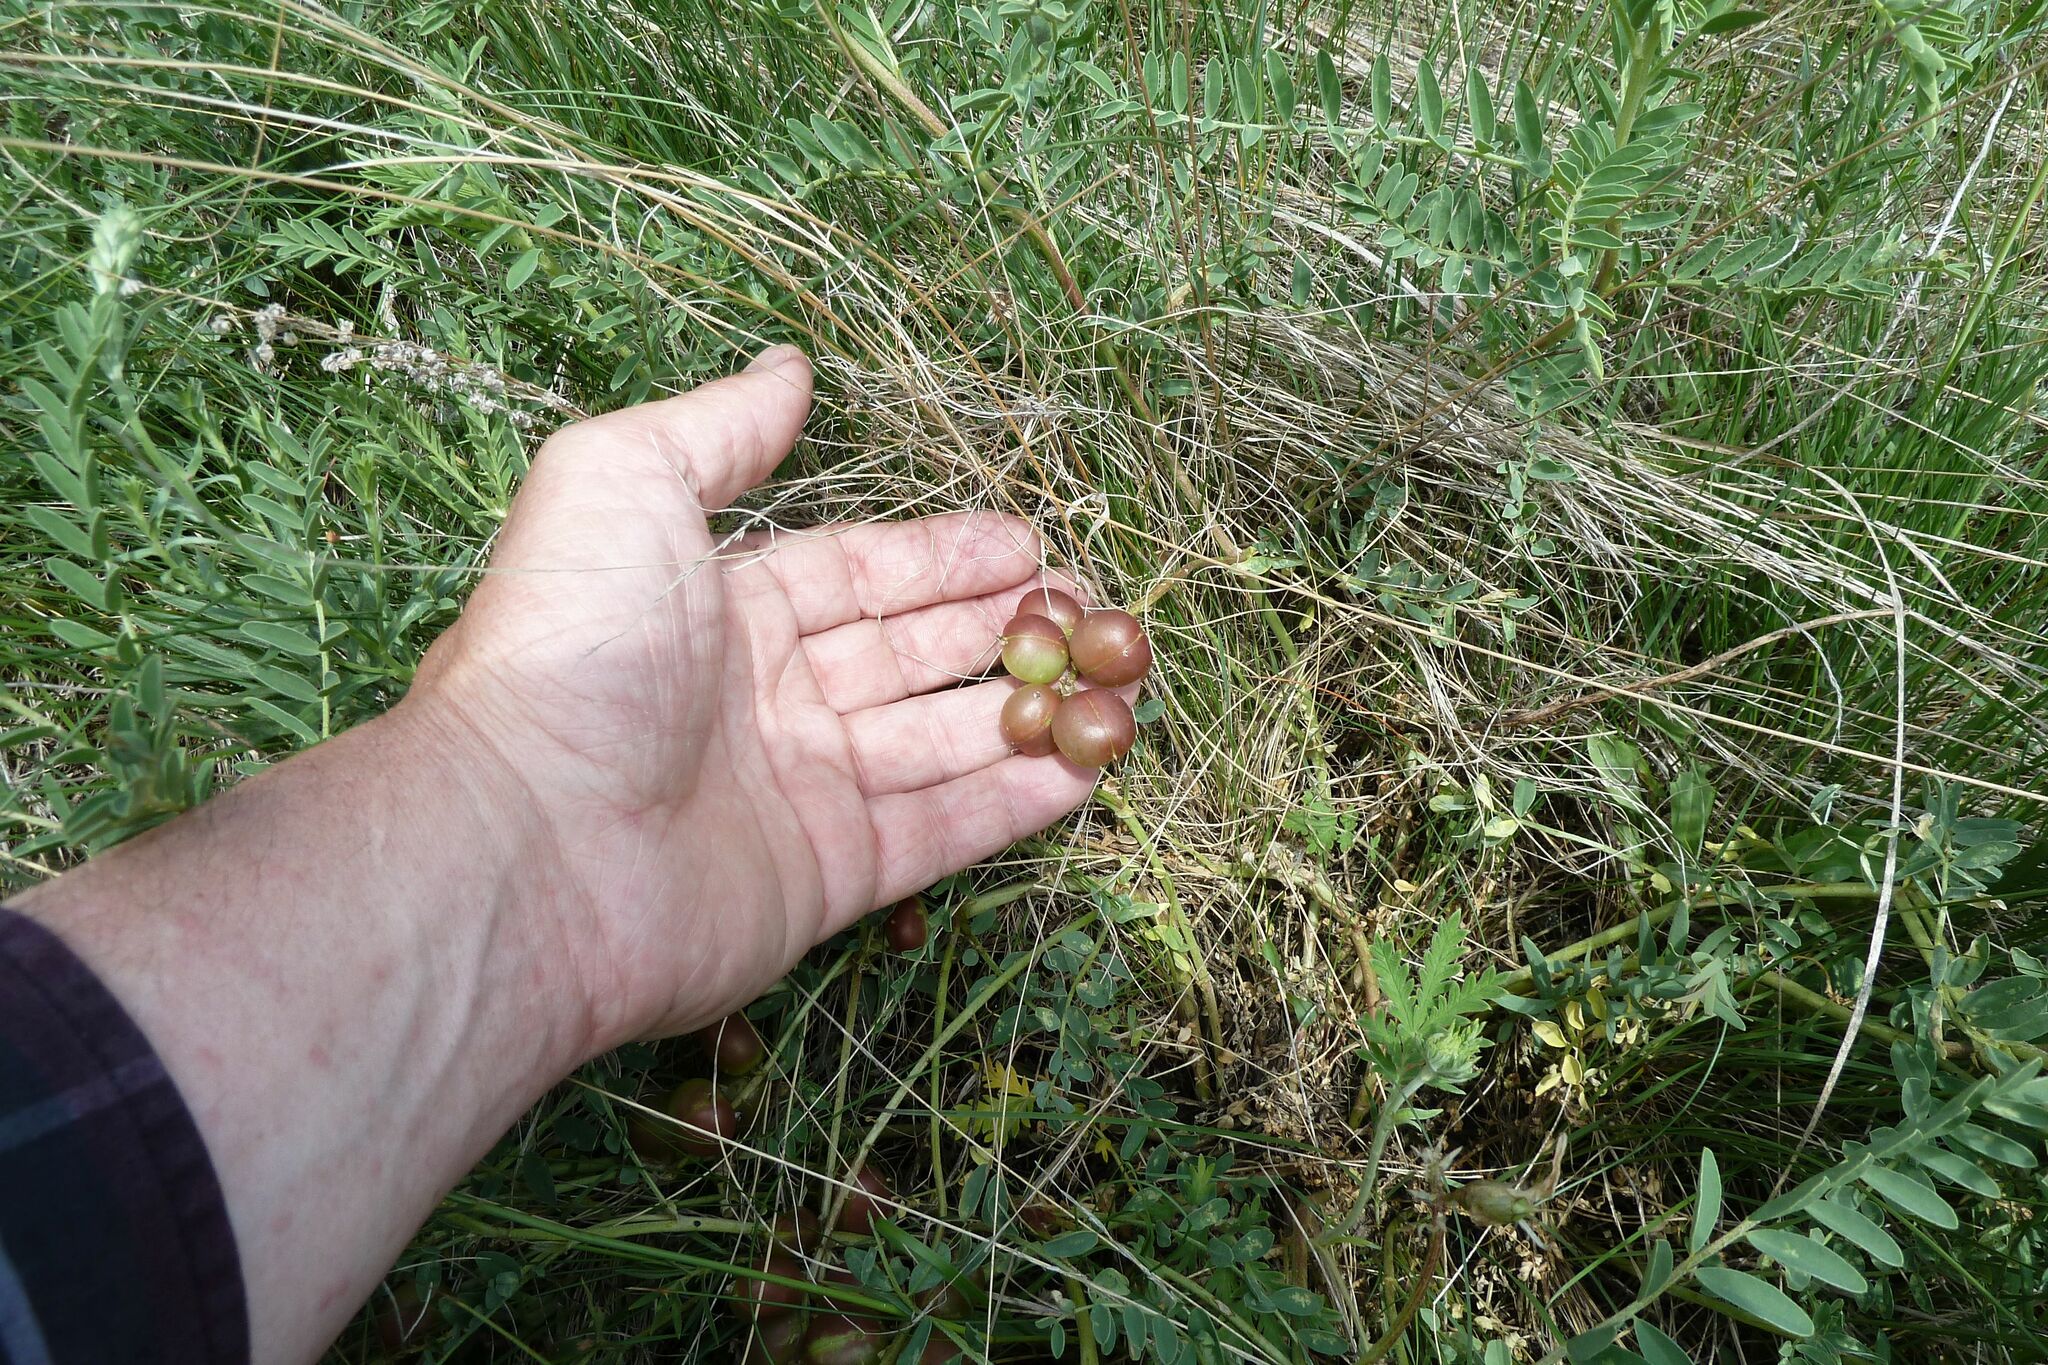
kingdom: Plantae
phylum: Tracheophyta
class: Magnoliopsida
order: Fabales
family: Fabaceae
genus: Astragalus
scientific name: Astragalus crassicarpus
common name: Ground-plum milk-vetch
